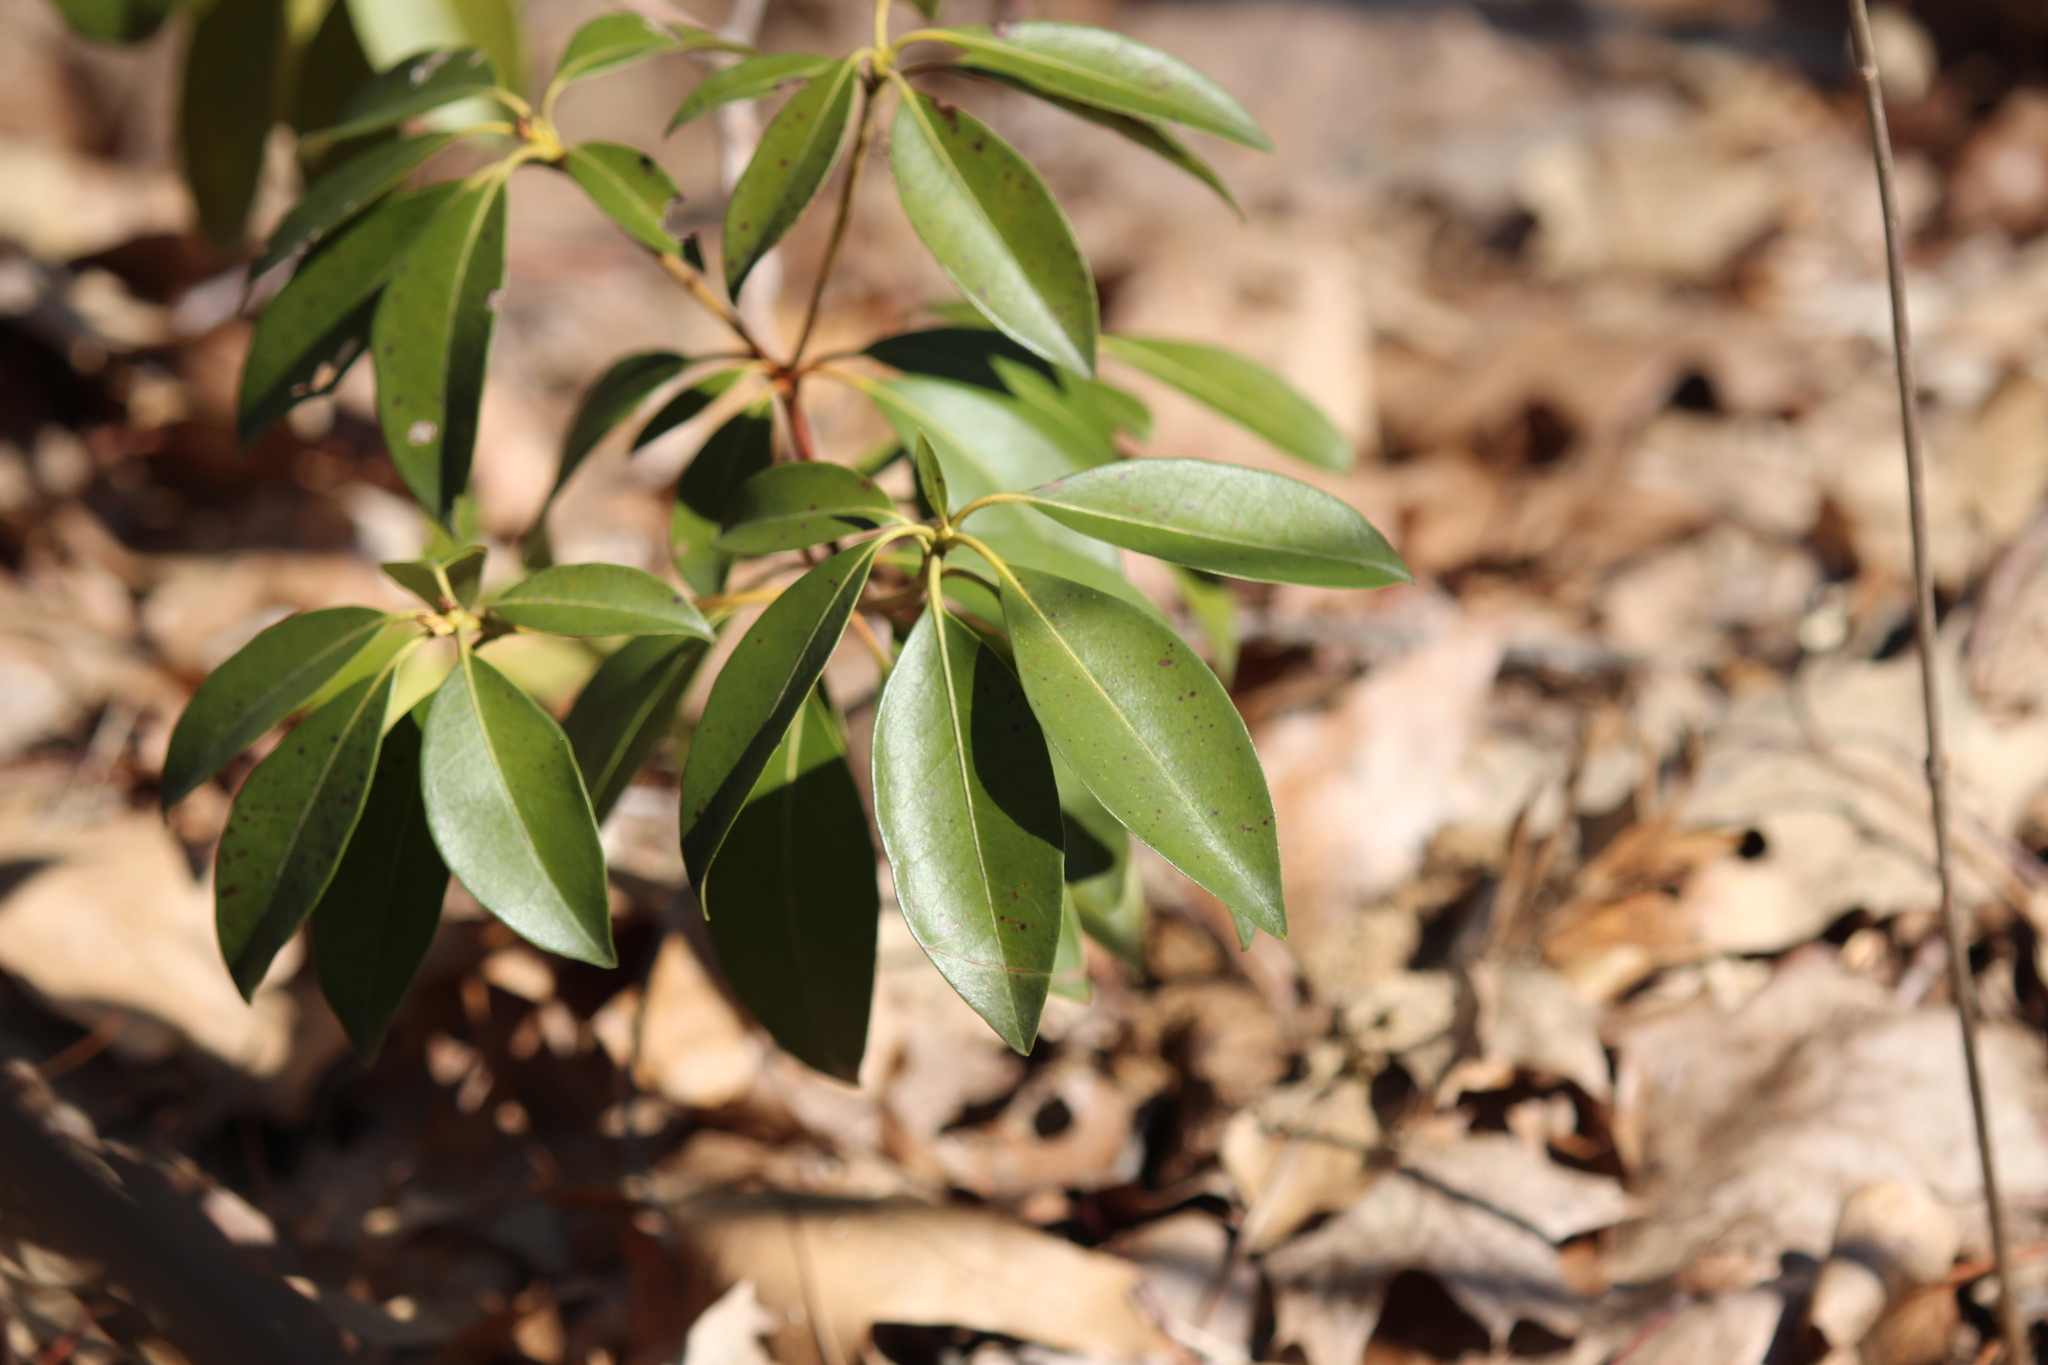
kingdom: Plantae
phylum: Tracheophyta
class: Magnoliopsida
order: Ericales
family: Ericaceae
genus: Kalmia
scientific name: Kalmia latifolia
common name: Mountain-laurel
